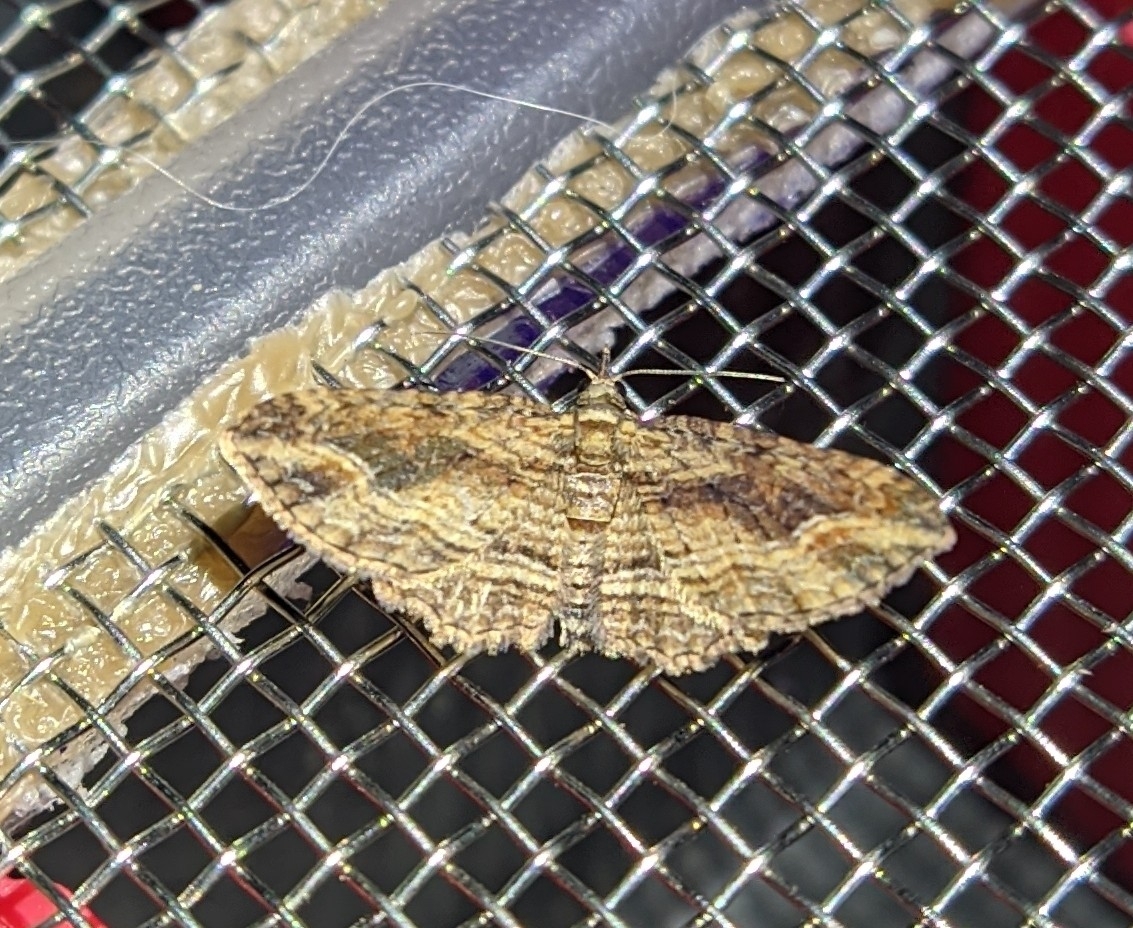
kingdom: Animalia
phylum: Arthropoda
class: Insecta
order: Lepidoptera
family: Geometridae
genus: Chloroclystis
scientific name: Chloroclystis filata
